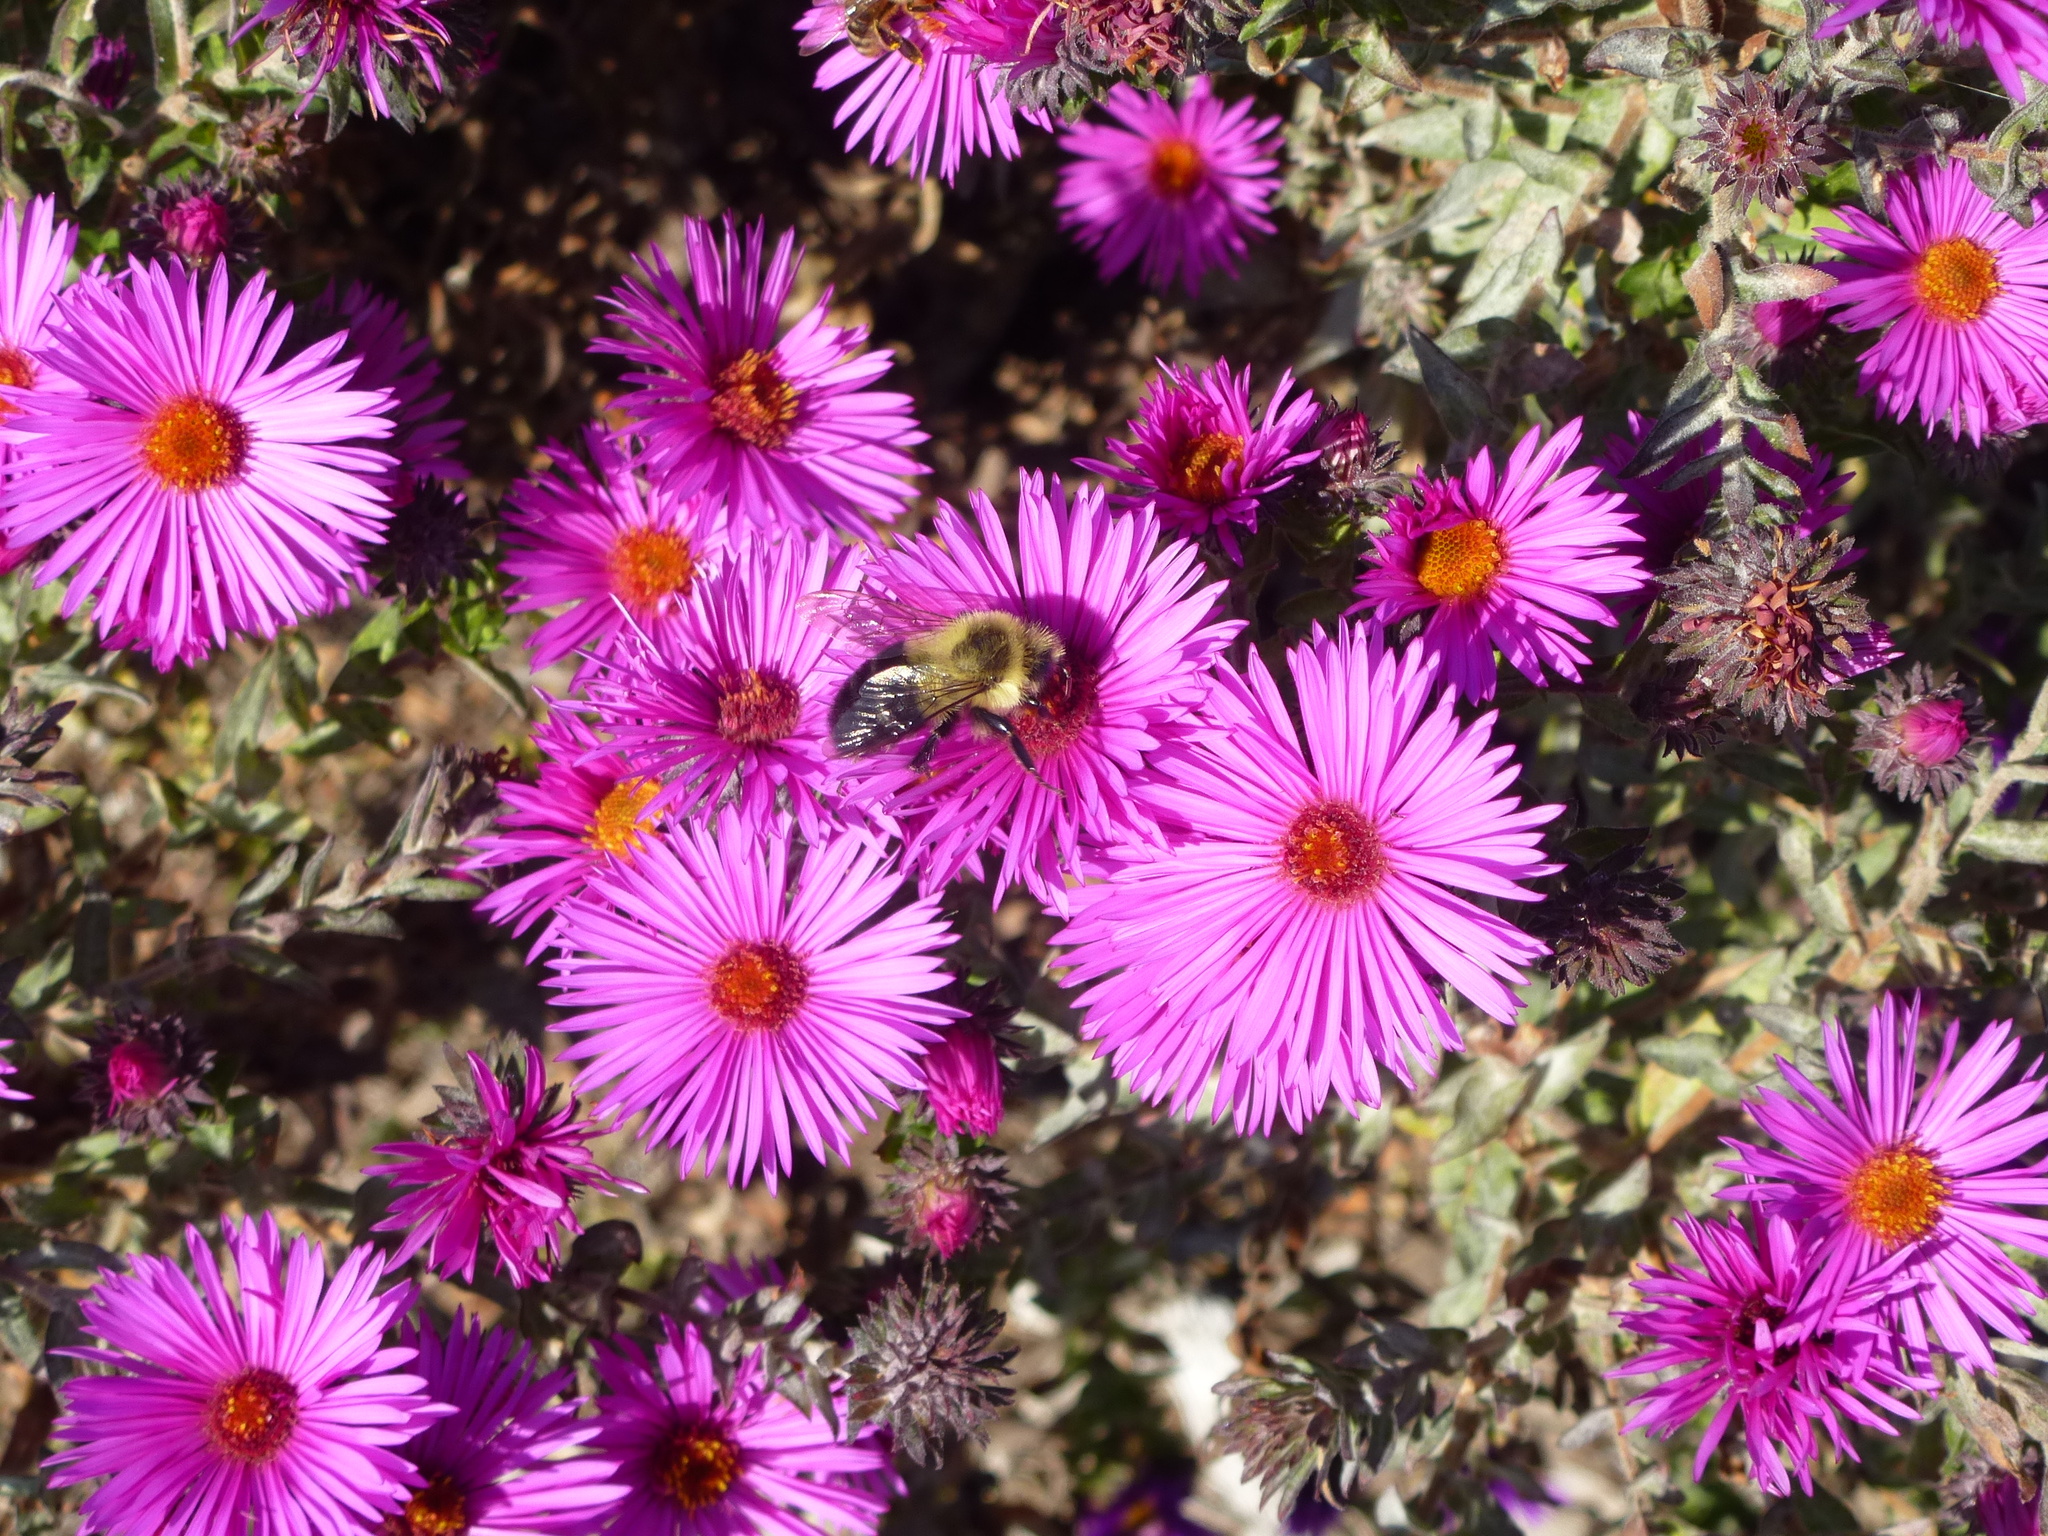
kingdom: Animalia
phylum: Arthropoda
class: Insecta
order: Hymenoptera
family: Apidae
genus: Bombus
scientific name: Bombus impatiens
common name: Common eastern bumble bee
